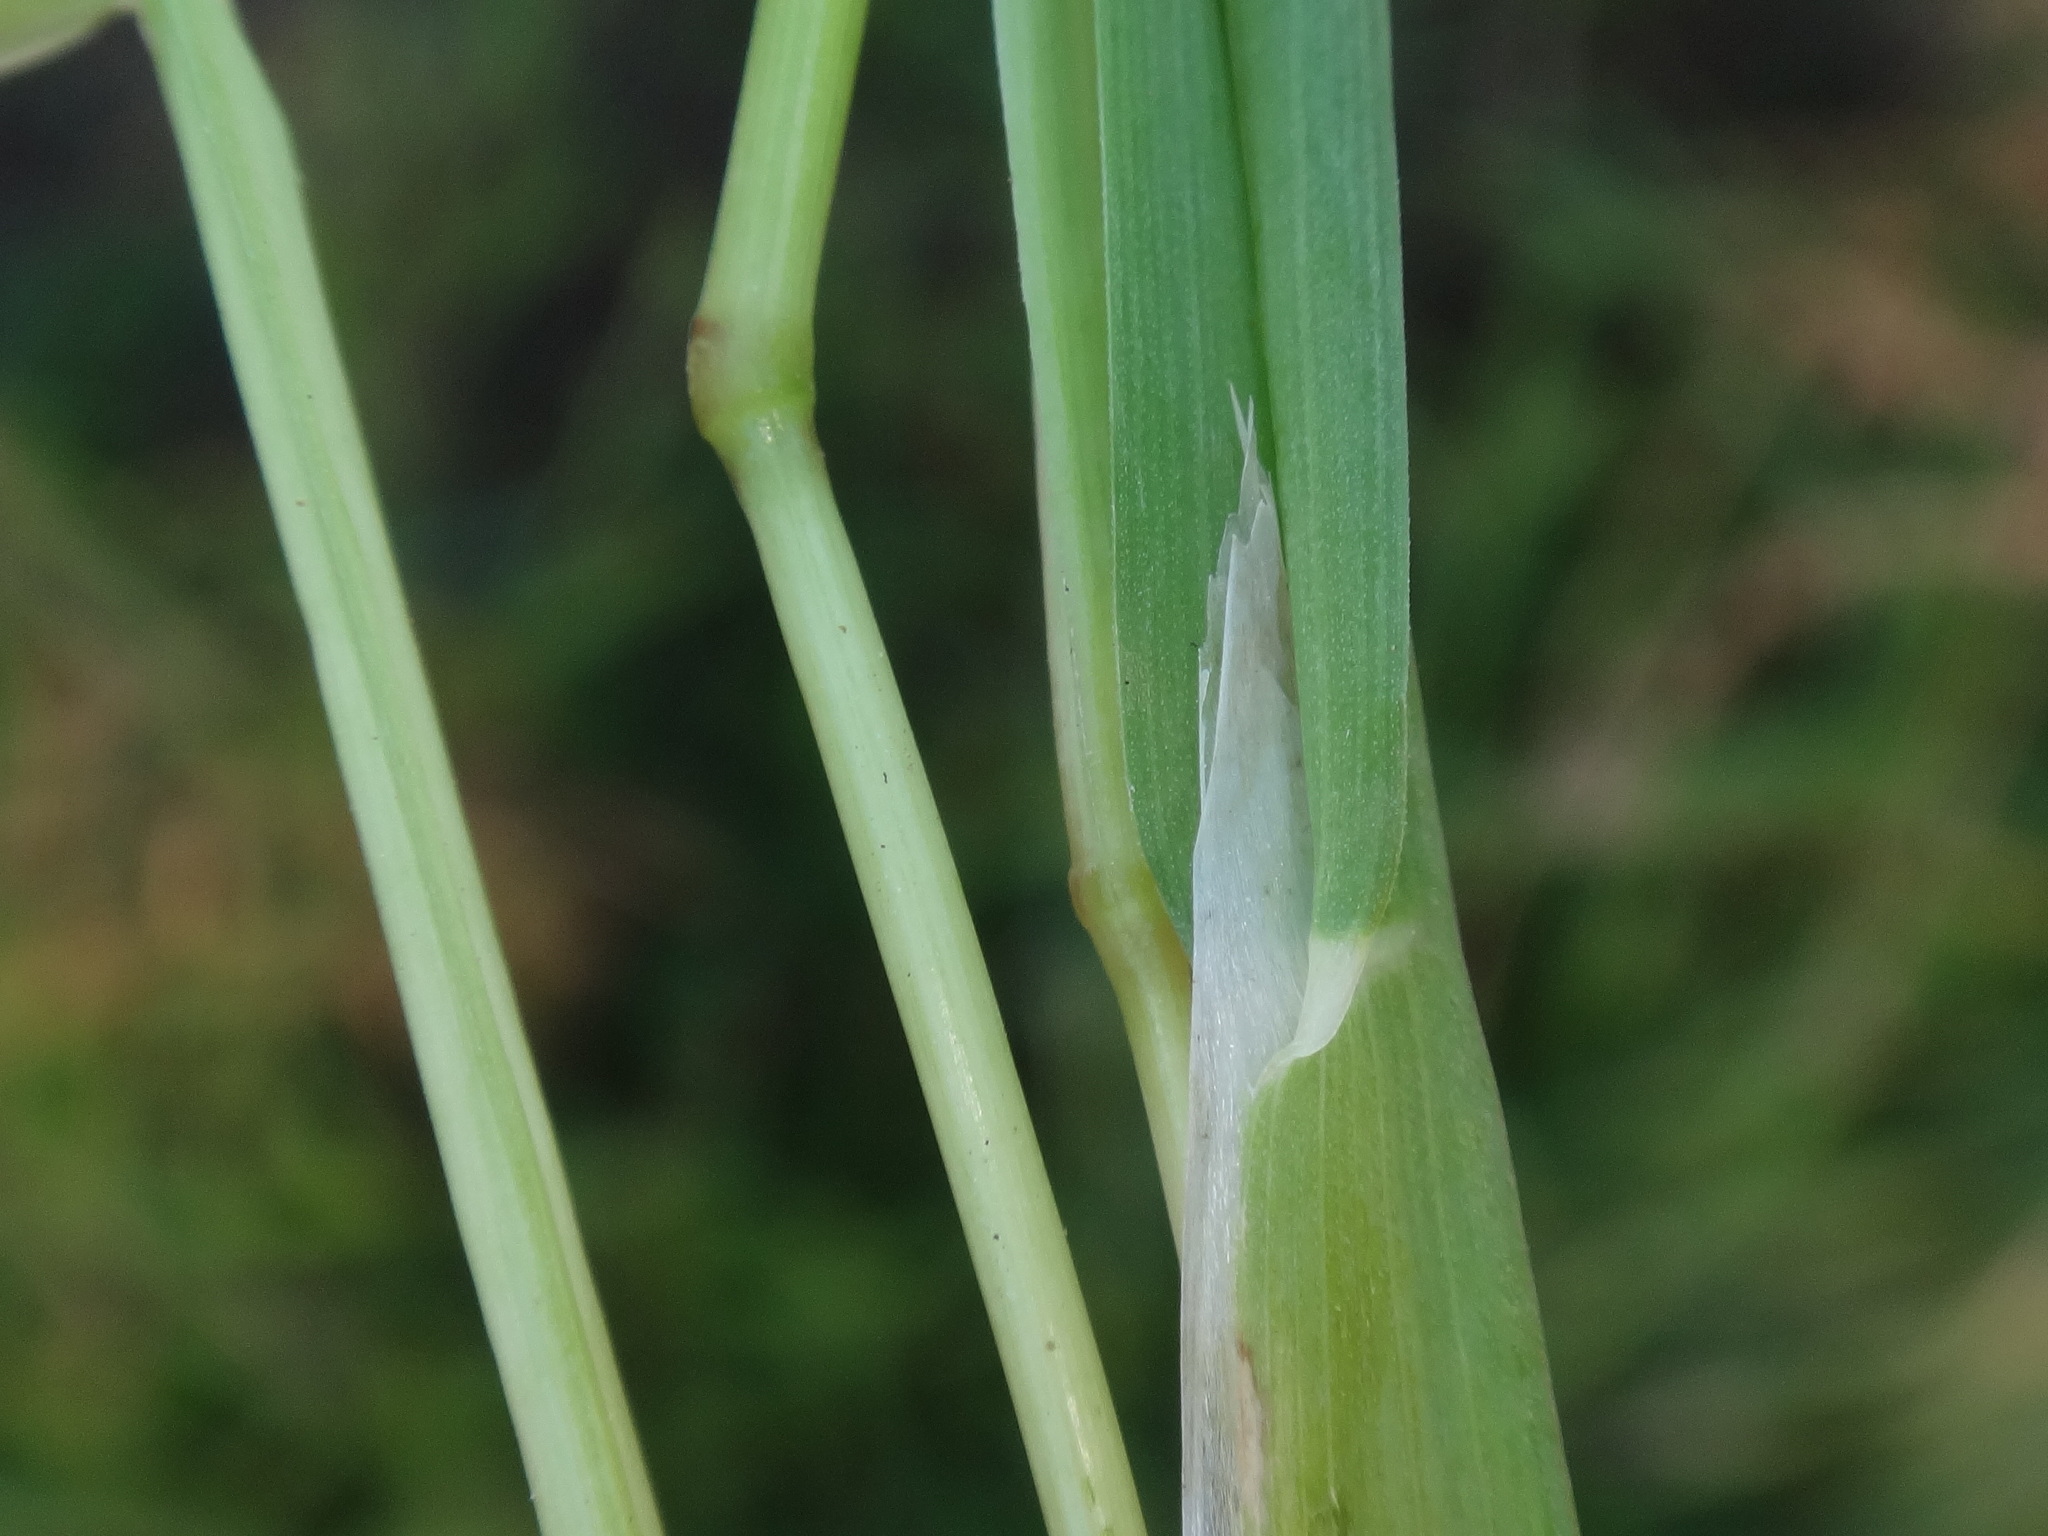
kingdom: Plantae
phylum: Tracheophyta
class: Liliopsida
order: Poales
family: Poaceae
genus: Lamarckia
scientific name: Lamarckia aurea
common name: Golden dog's-tail
